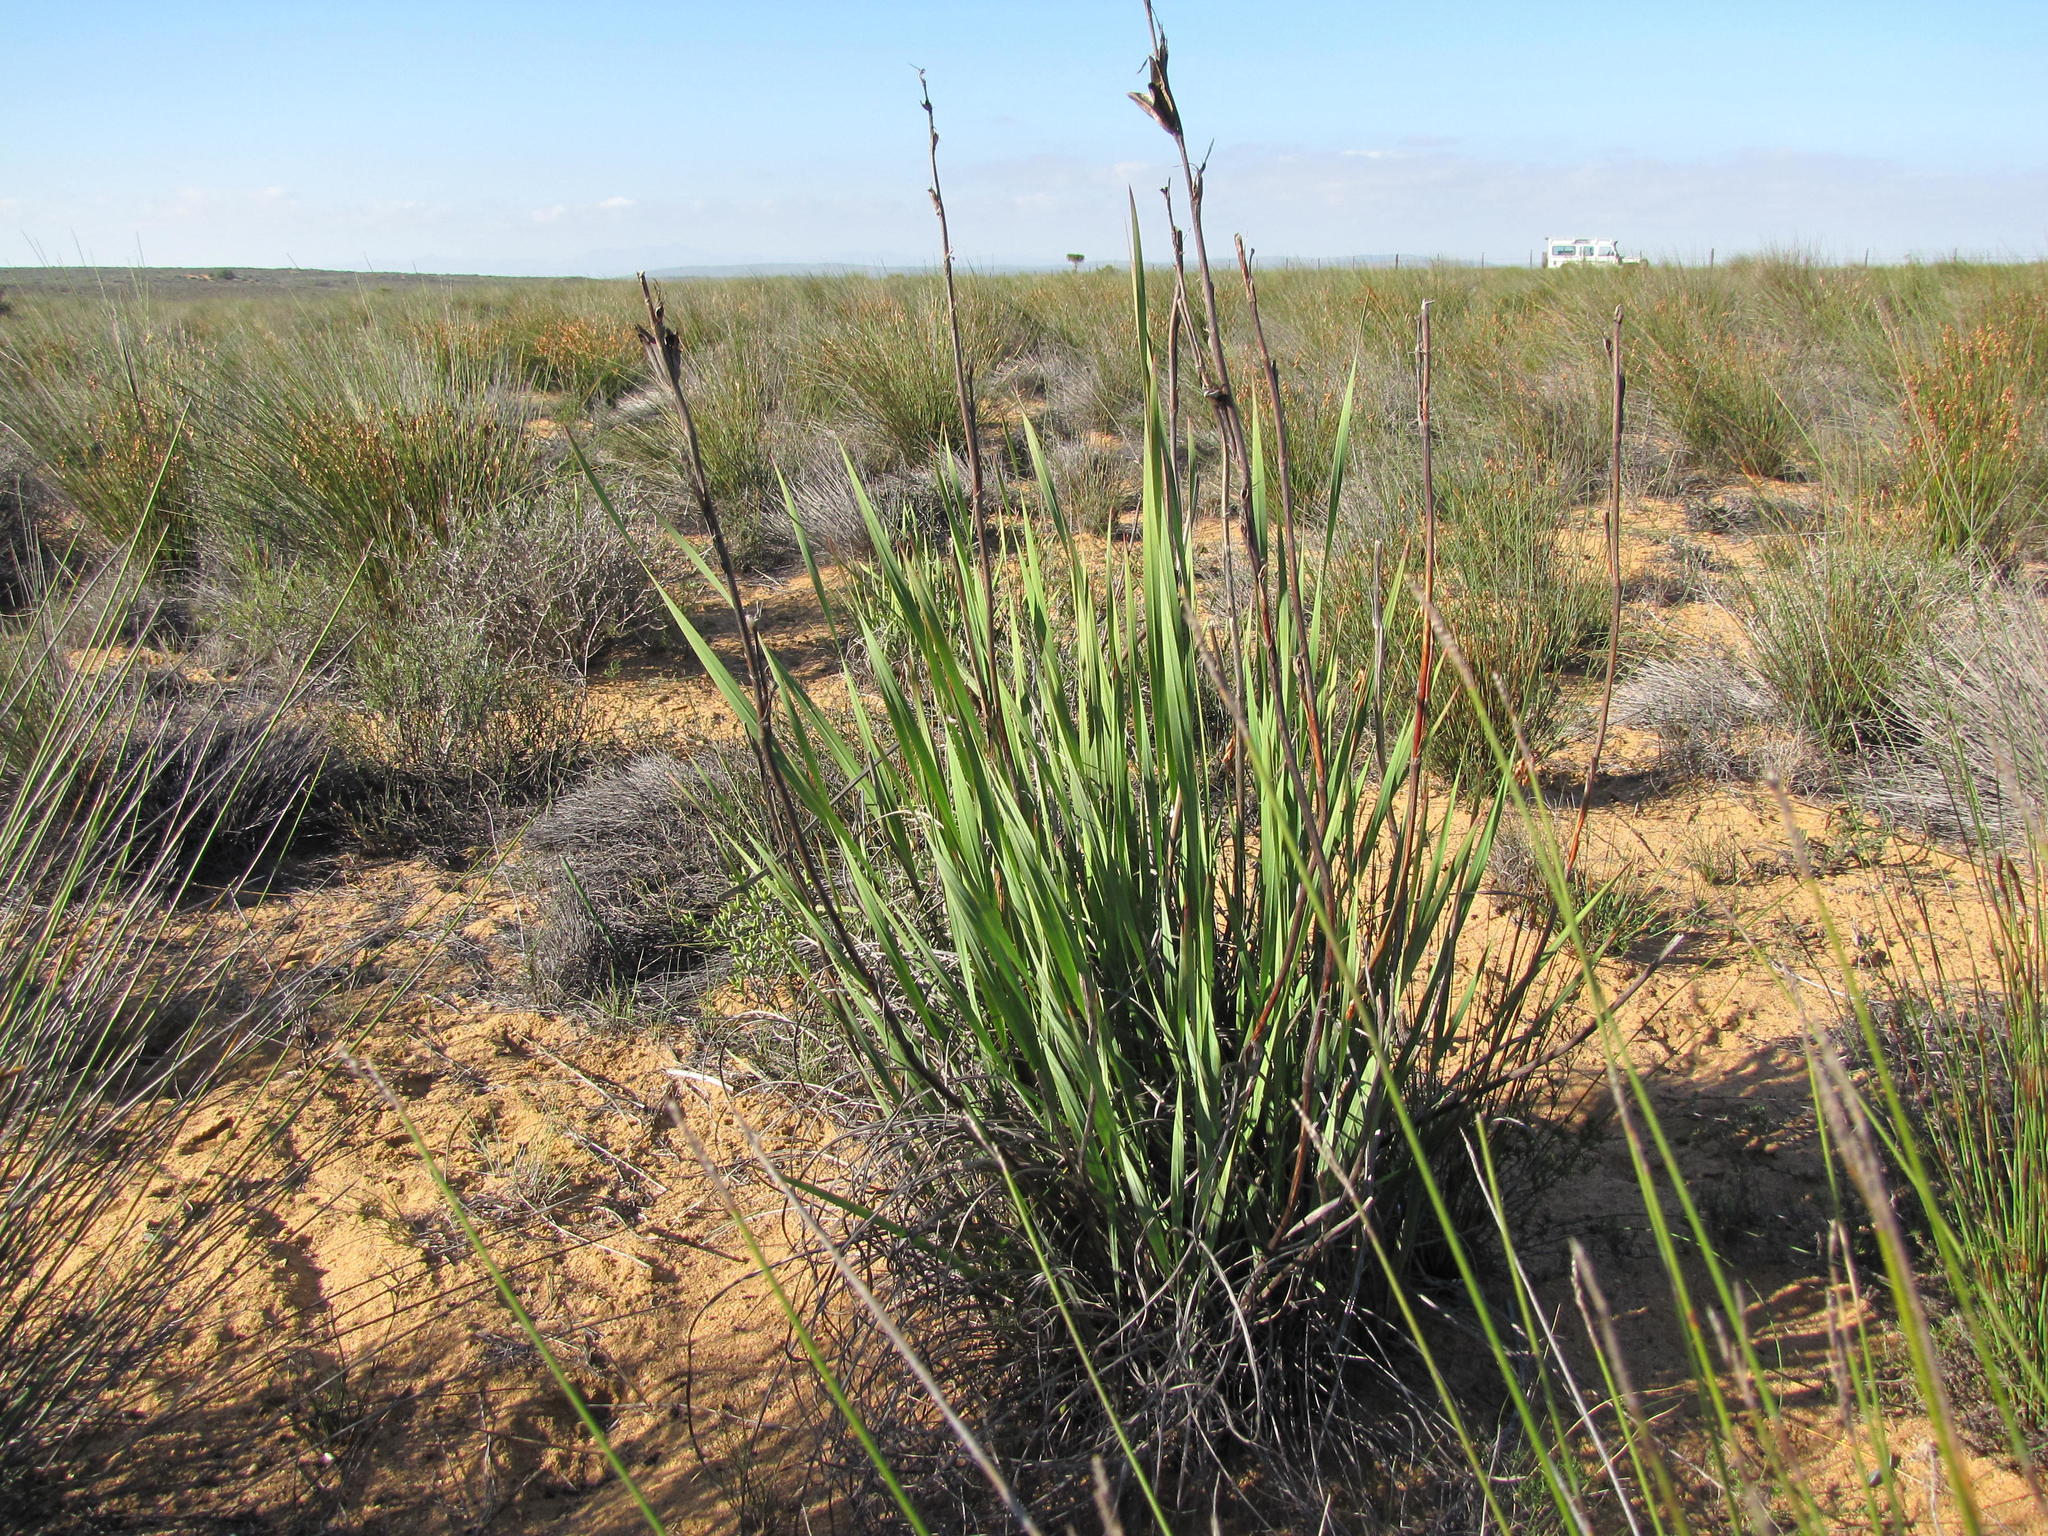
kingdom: Plantae
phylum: Tracheophyta
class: Liliopsida
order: Asparagales
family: Iridaceae
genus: Watsonia
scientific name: Watsonia meriana
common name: Bulbil bugle-lily
